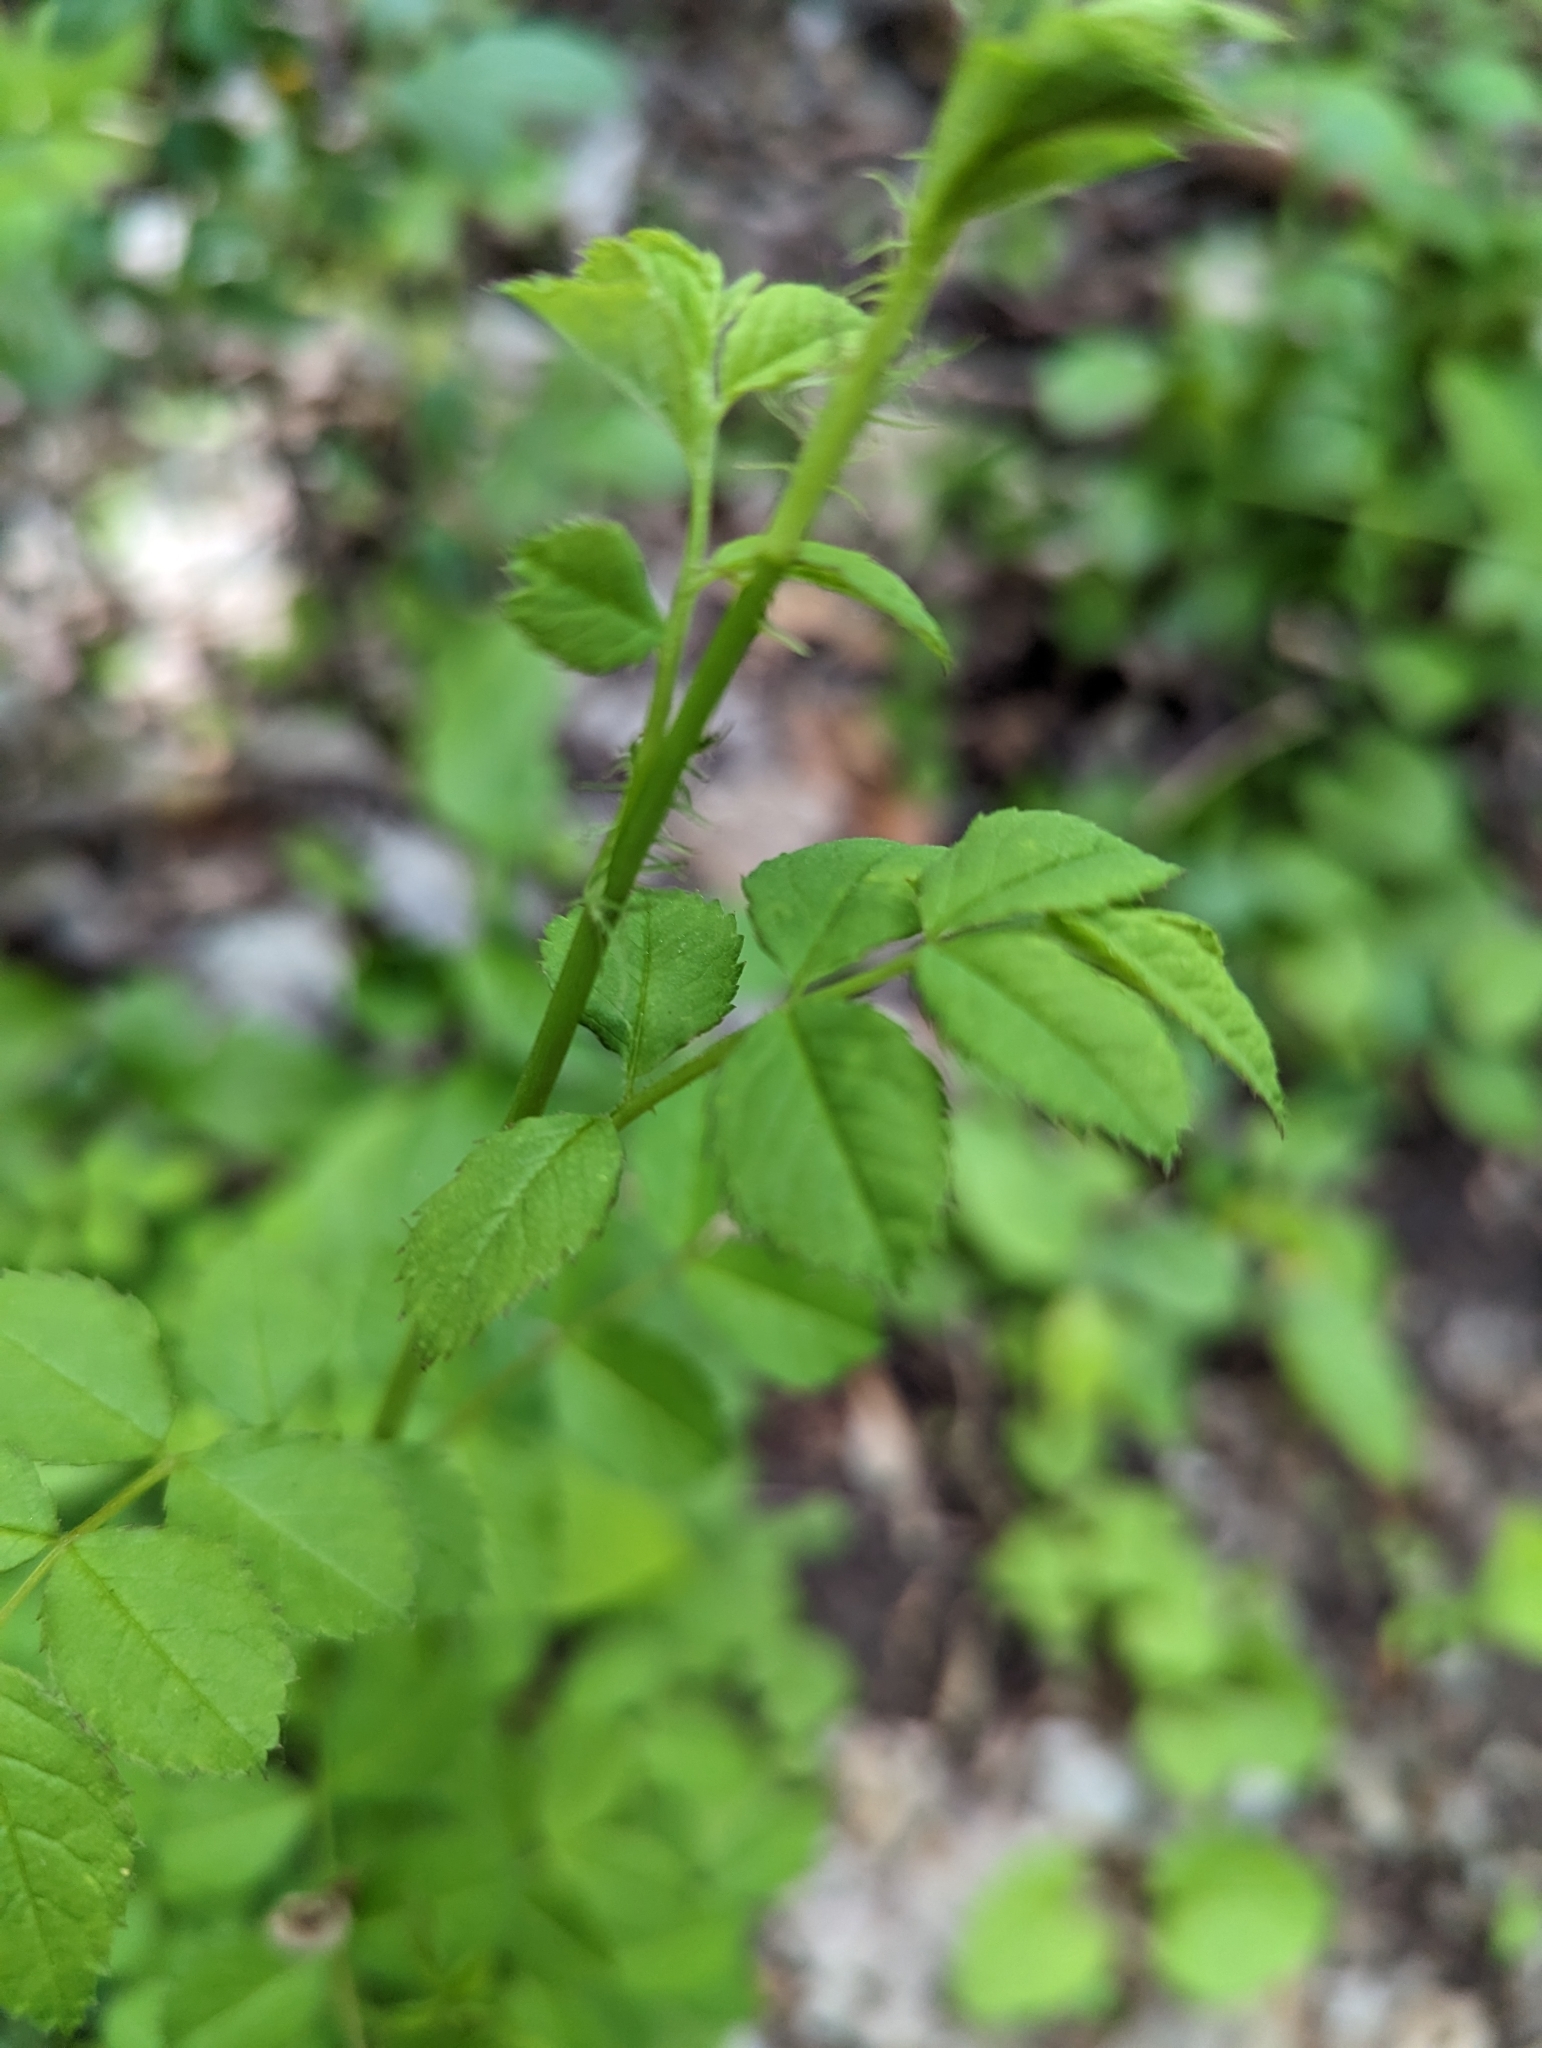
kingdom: Plantae
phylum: Tracheophyta
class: Magnoliopsida
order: Rosales
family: Rosaceae
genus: Rosa
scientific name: Rosa multiflora
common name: Multiflora rose
